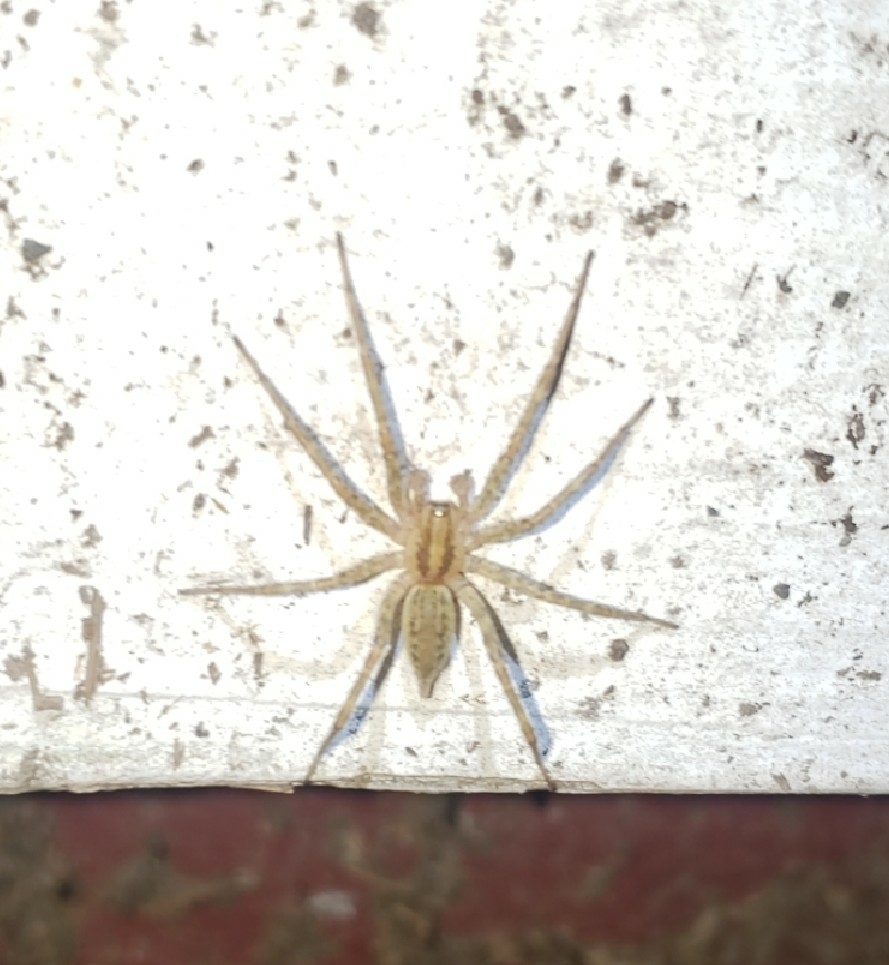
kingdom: Animalia
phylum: Arthropoda
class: Arachnida
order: Araneae
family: Agelenidae
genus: Agelenopsis
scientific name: Agelenopsis
